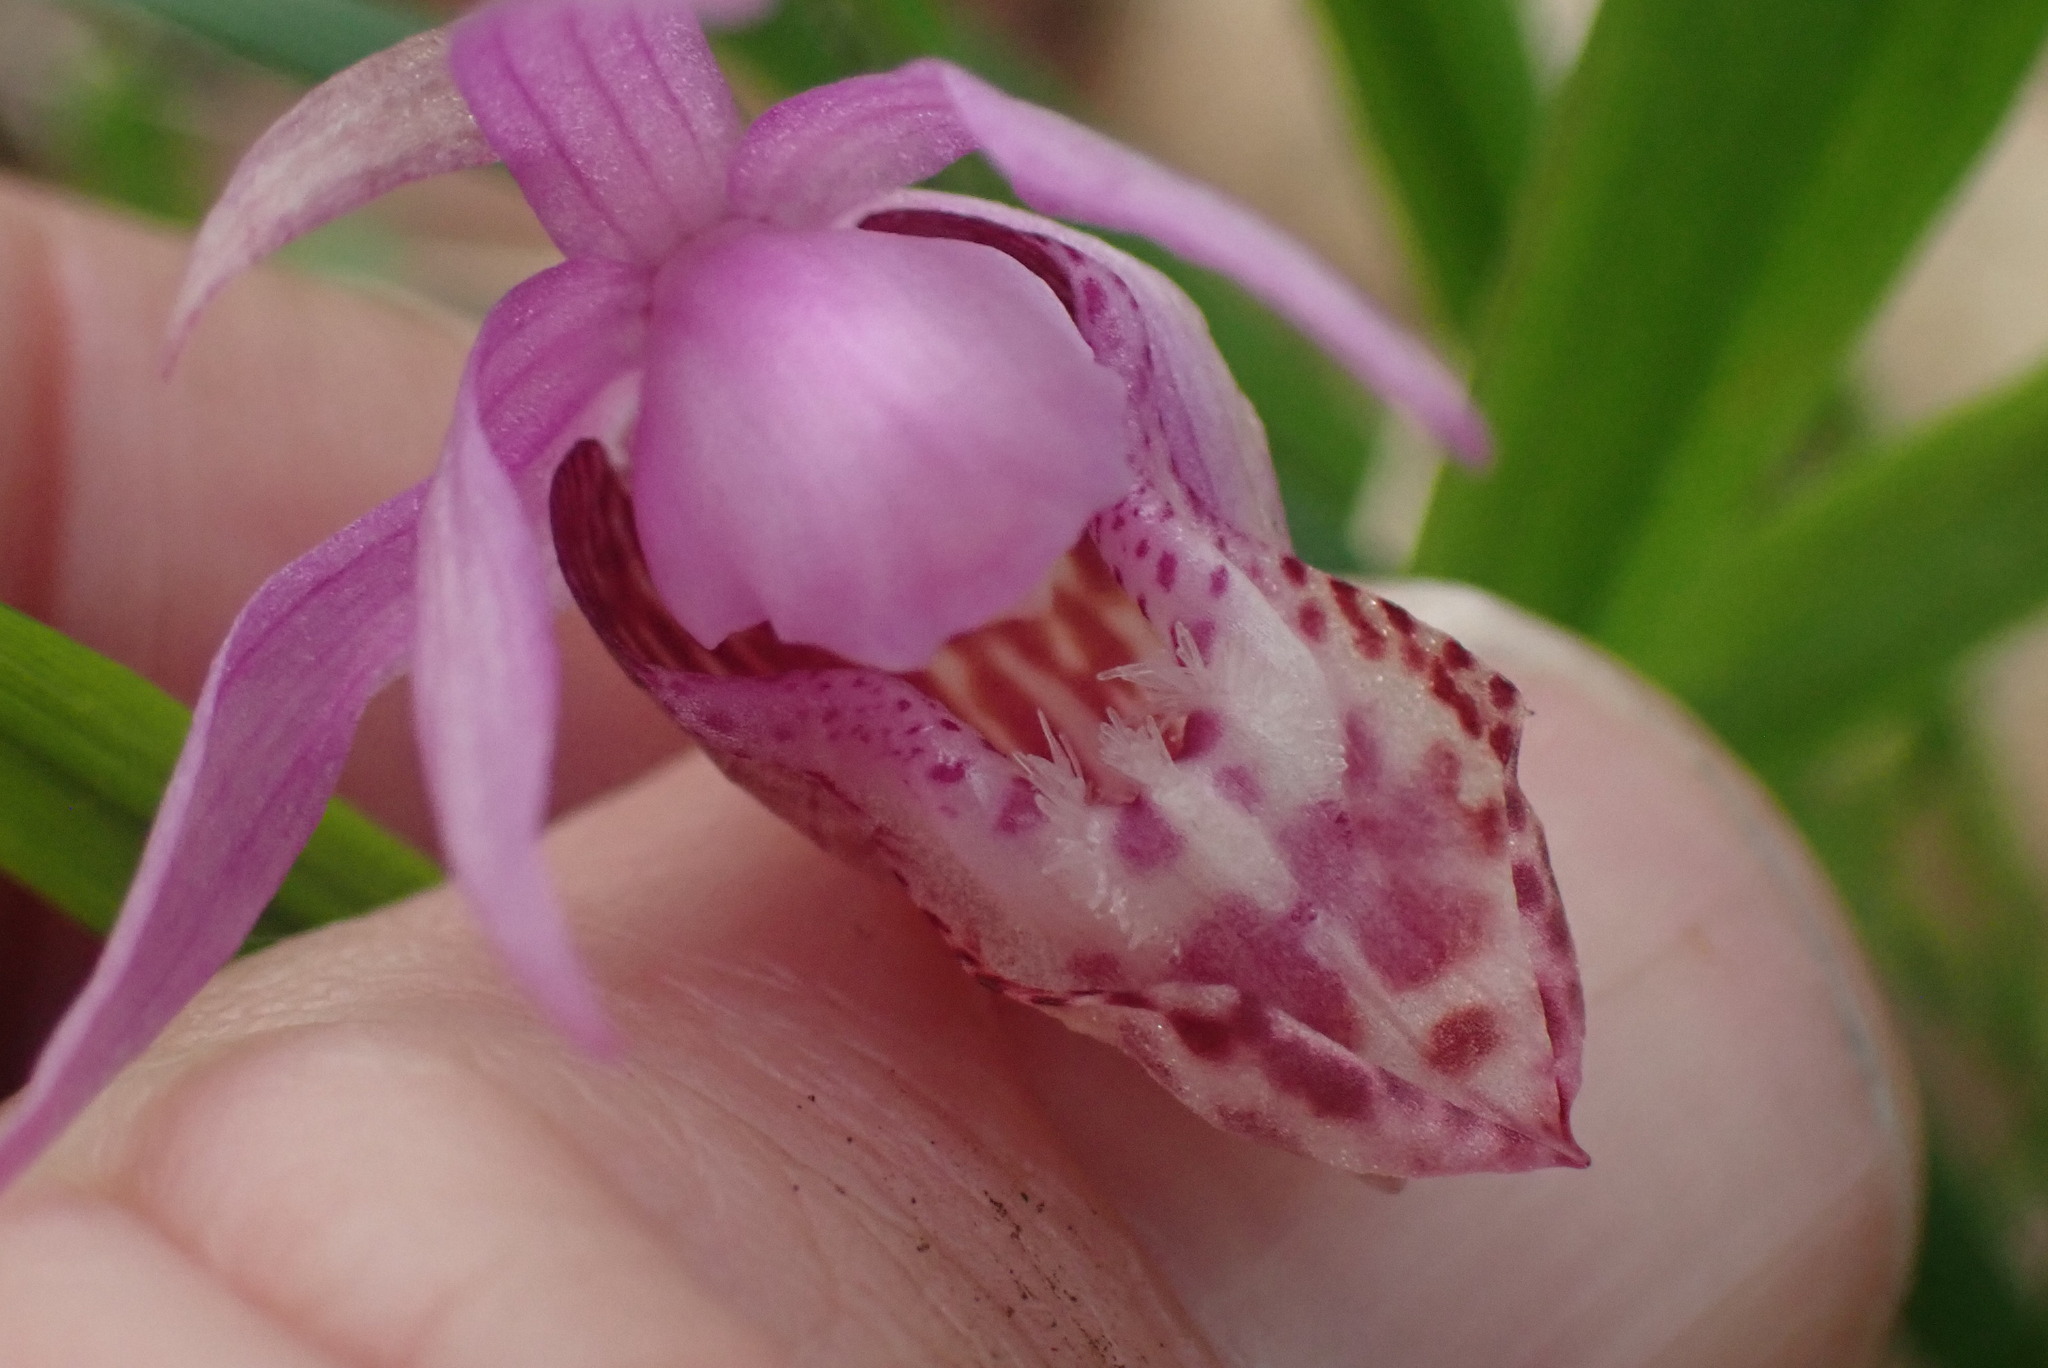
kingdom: Plantae
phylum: Tracheophyta
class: Liliopsida
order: Asparagales
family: Orchidaceae
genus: Calypso
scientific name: Calypso bulbosa
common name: Calypso
